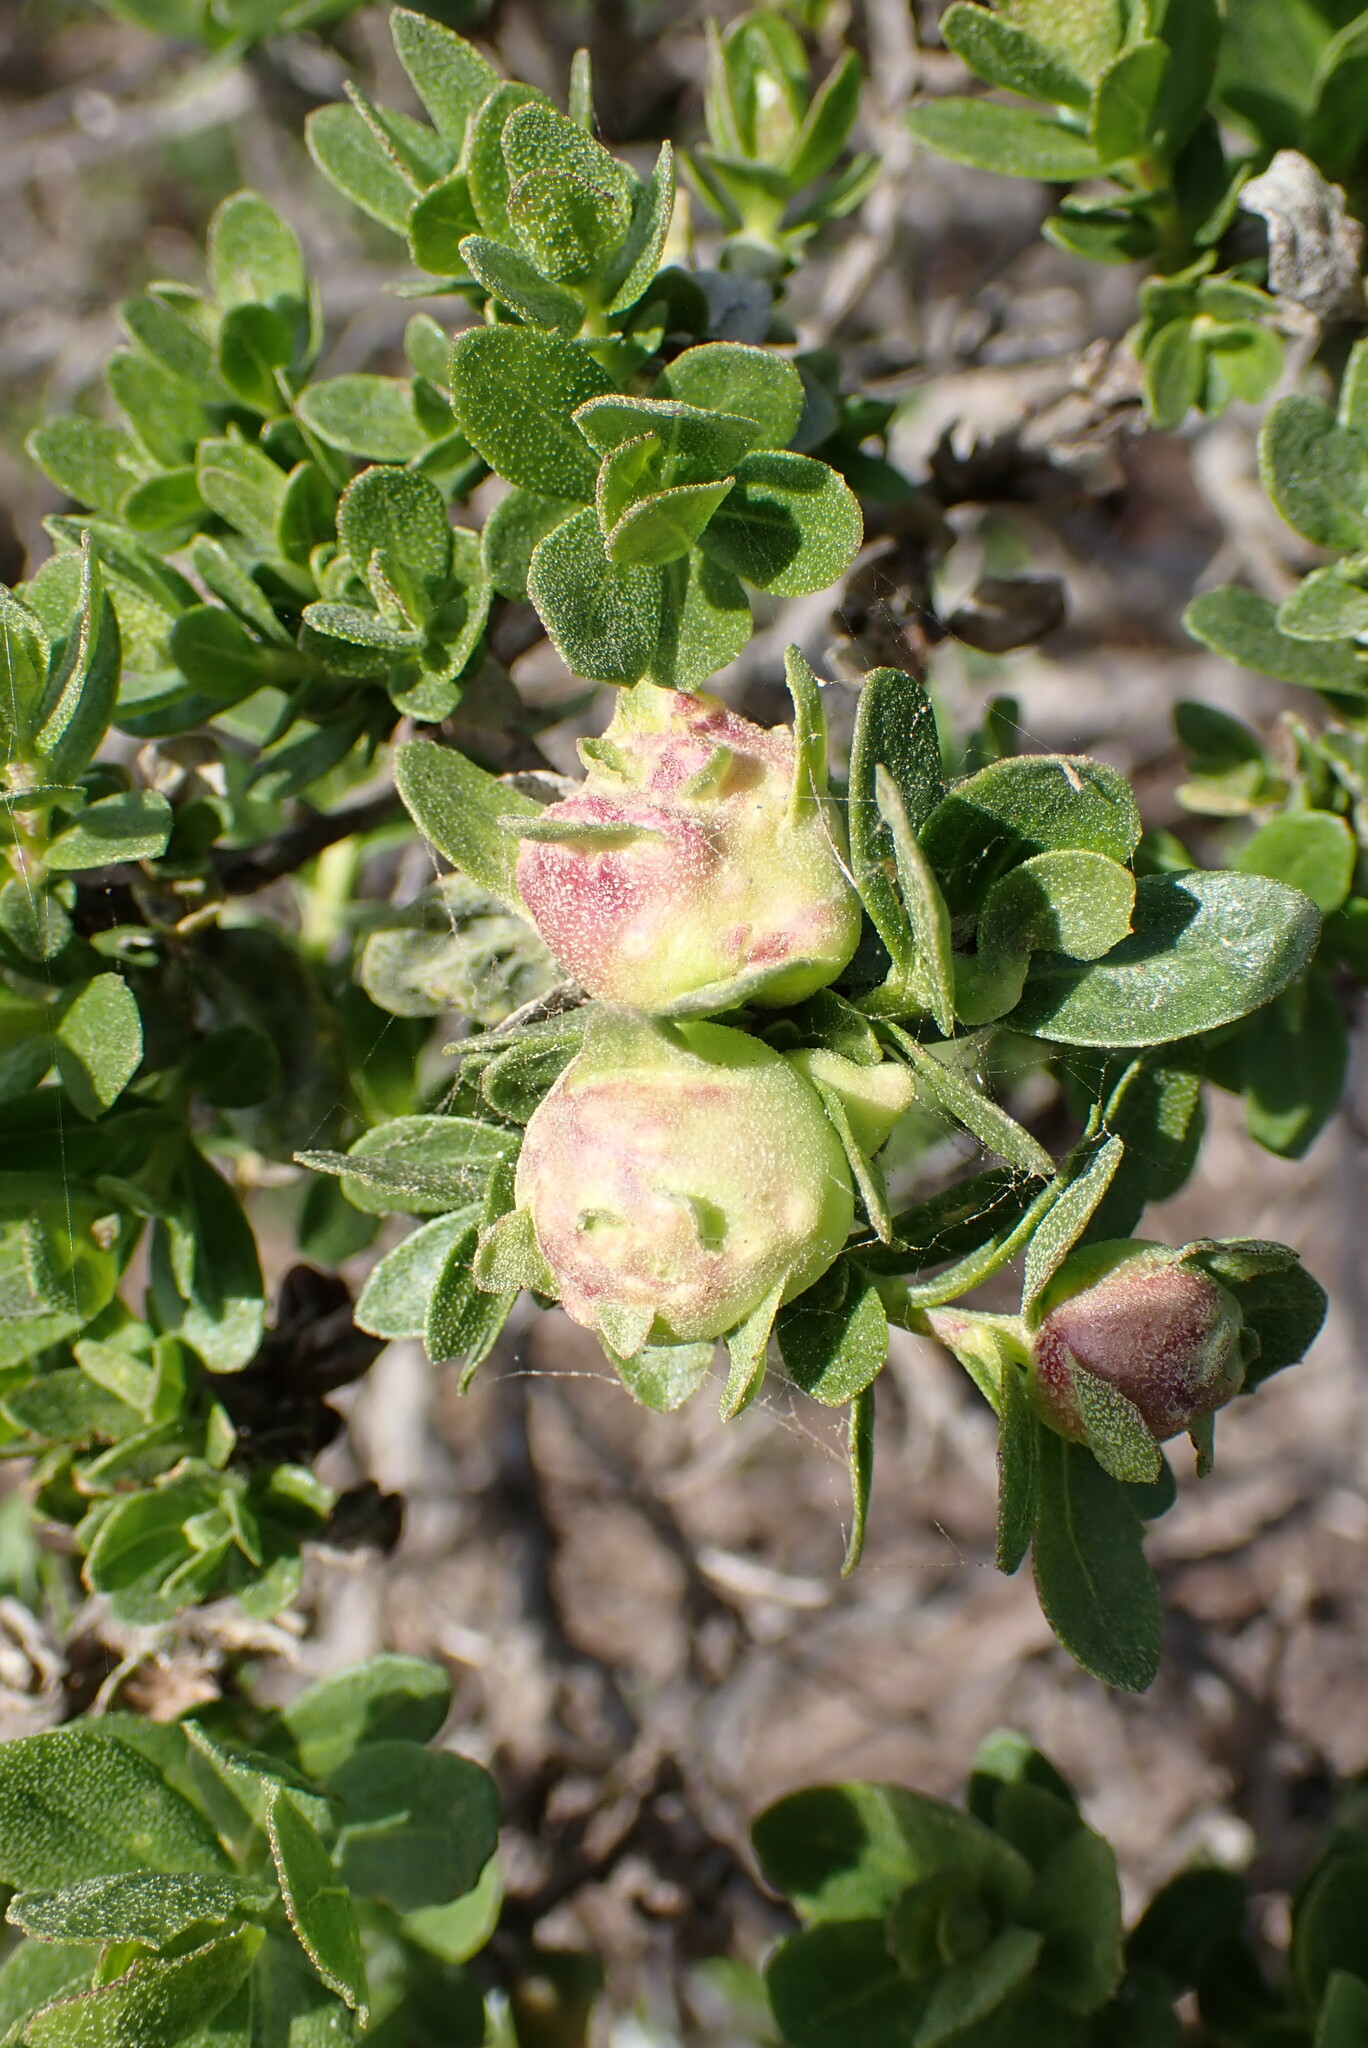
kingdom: Animalia
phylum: Arthropoda
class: Insecta
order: Diptera
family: Cecidomyiidae
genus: Rhopalomyia
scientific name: Rhopalomyia californica
